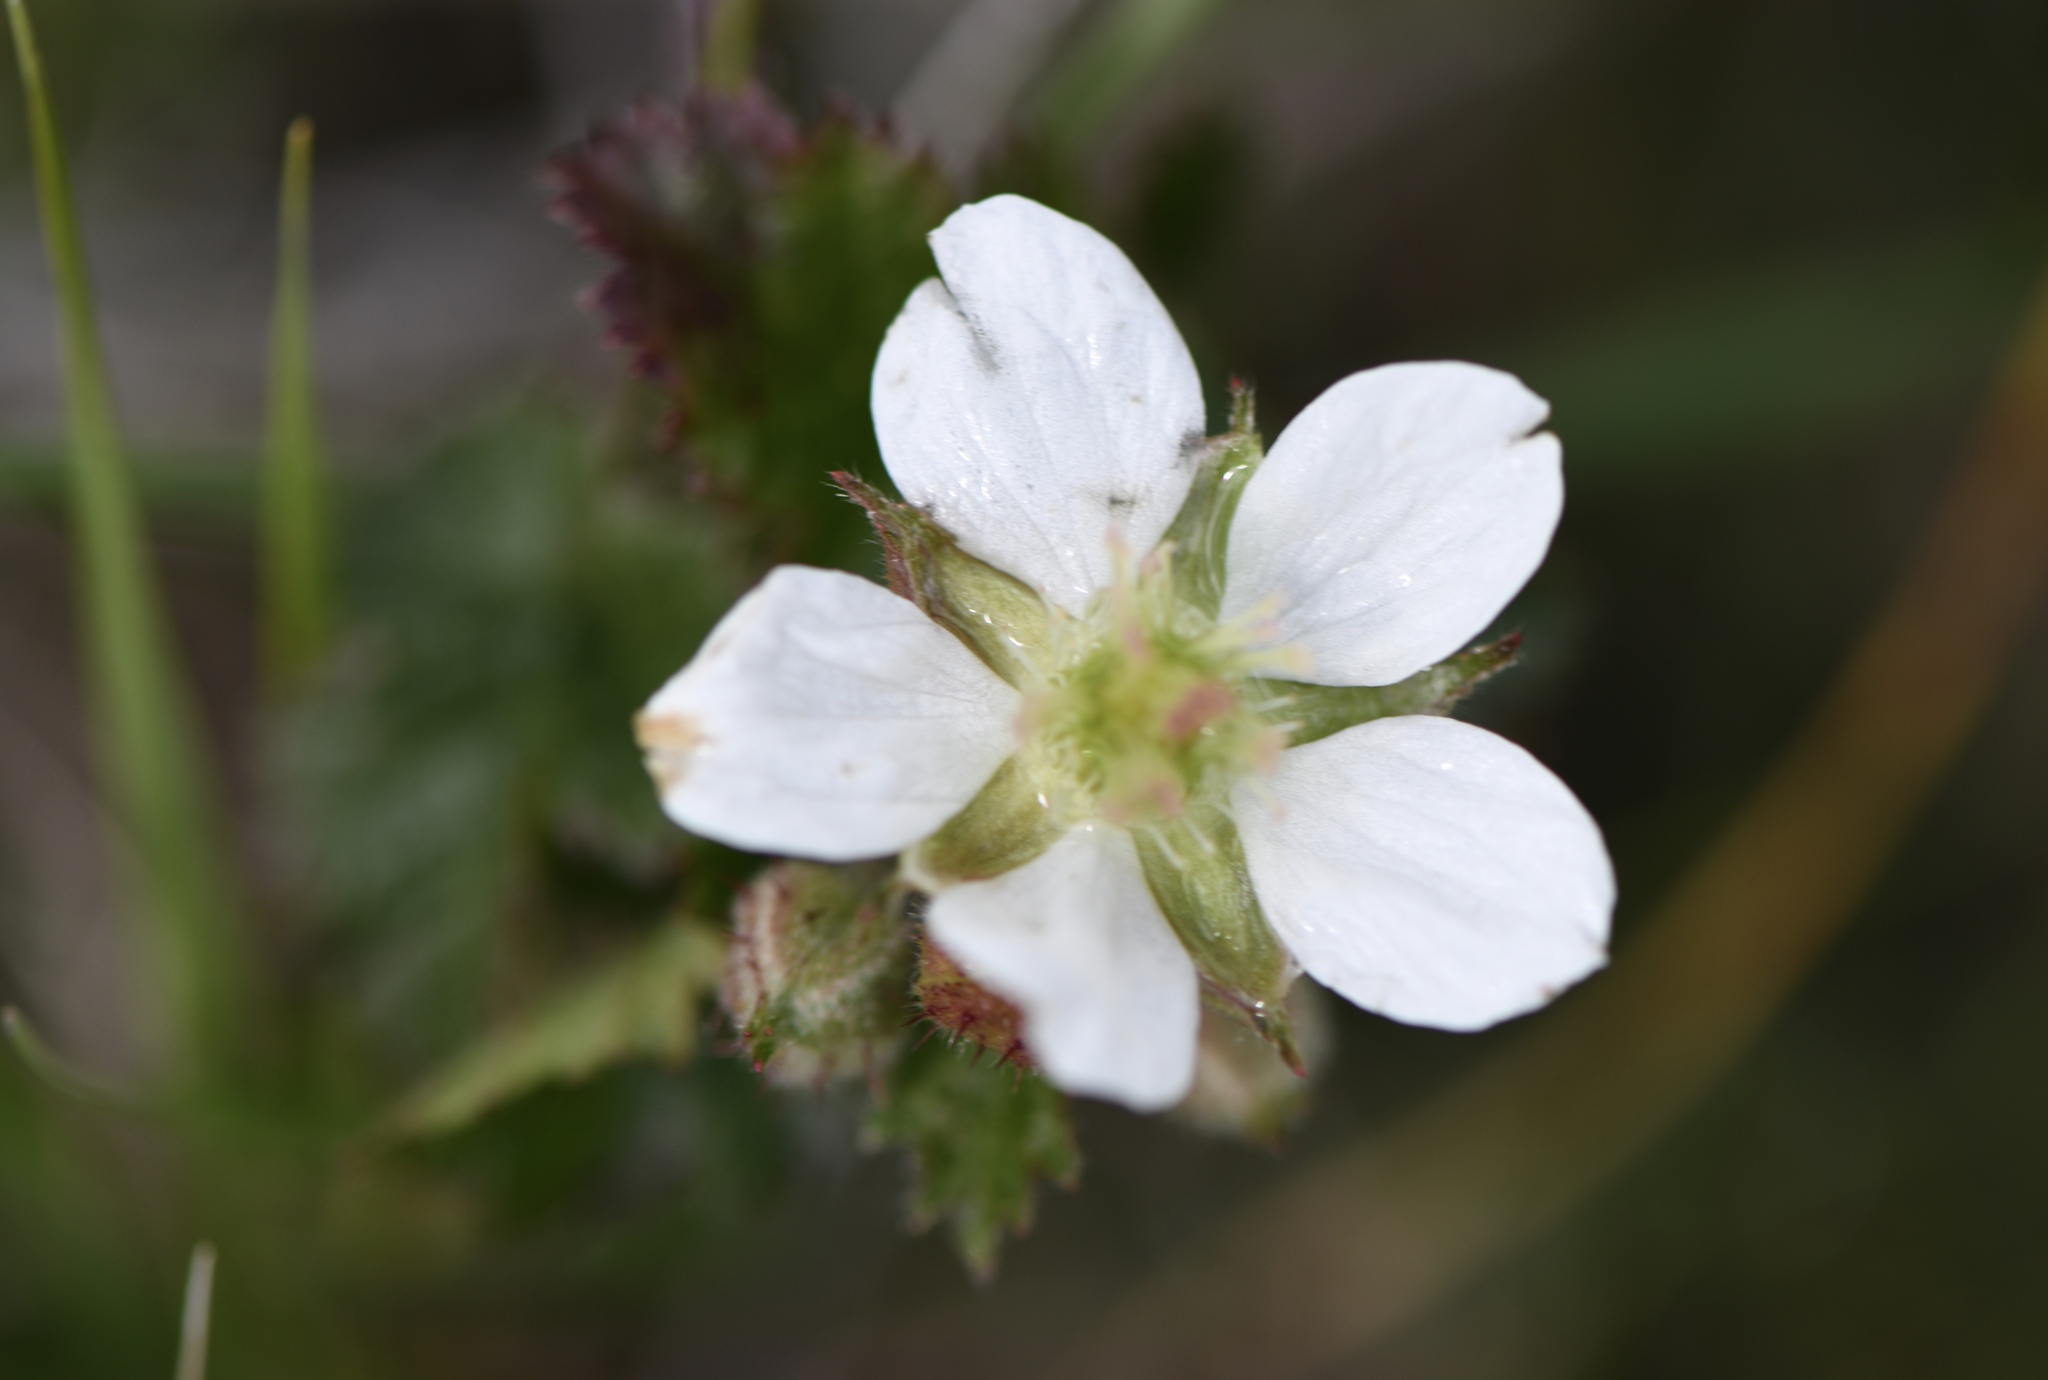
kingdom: Plantae
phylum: Tracheophyta
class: Magnoliopsida
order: Rosales
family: Rosaceae
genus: Rubus
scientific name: Rubus ursinus
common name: Pacific blackberry
